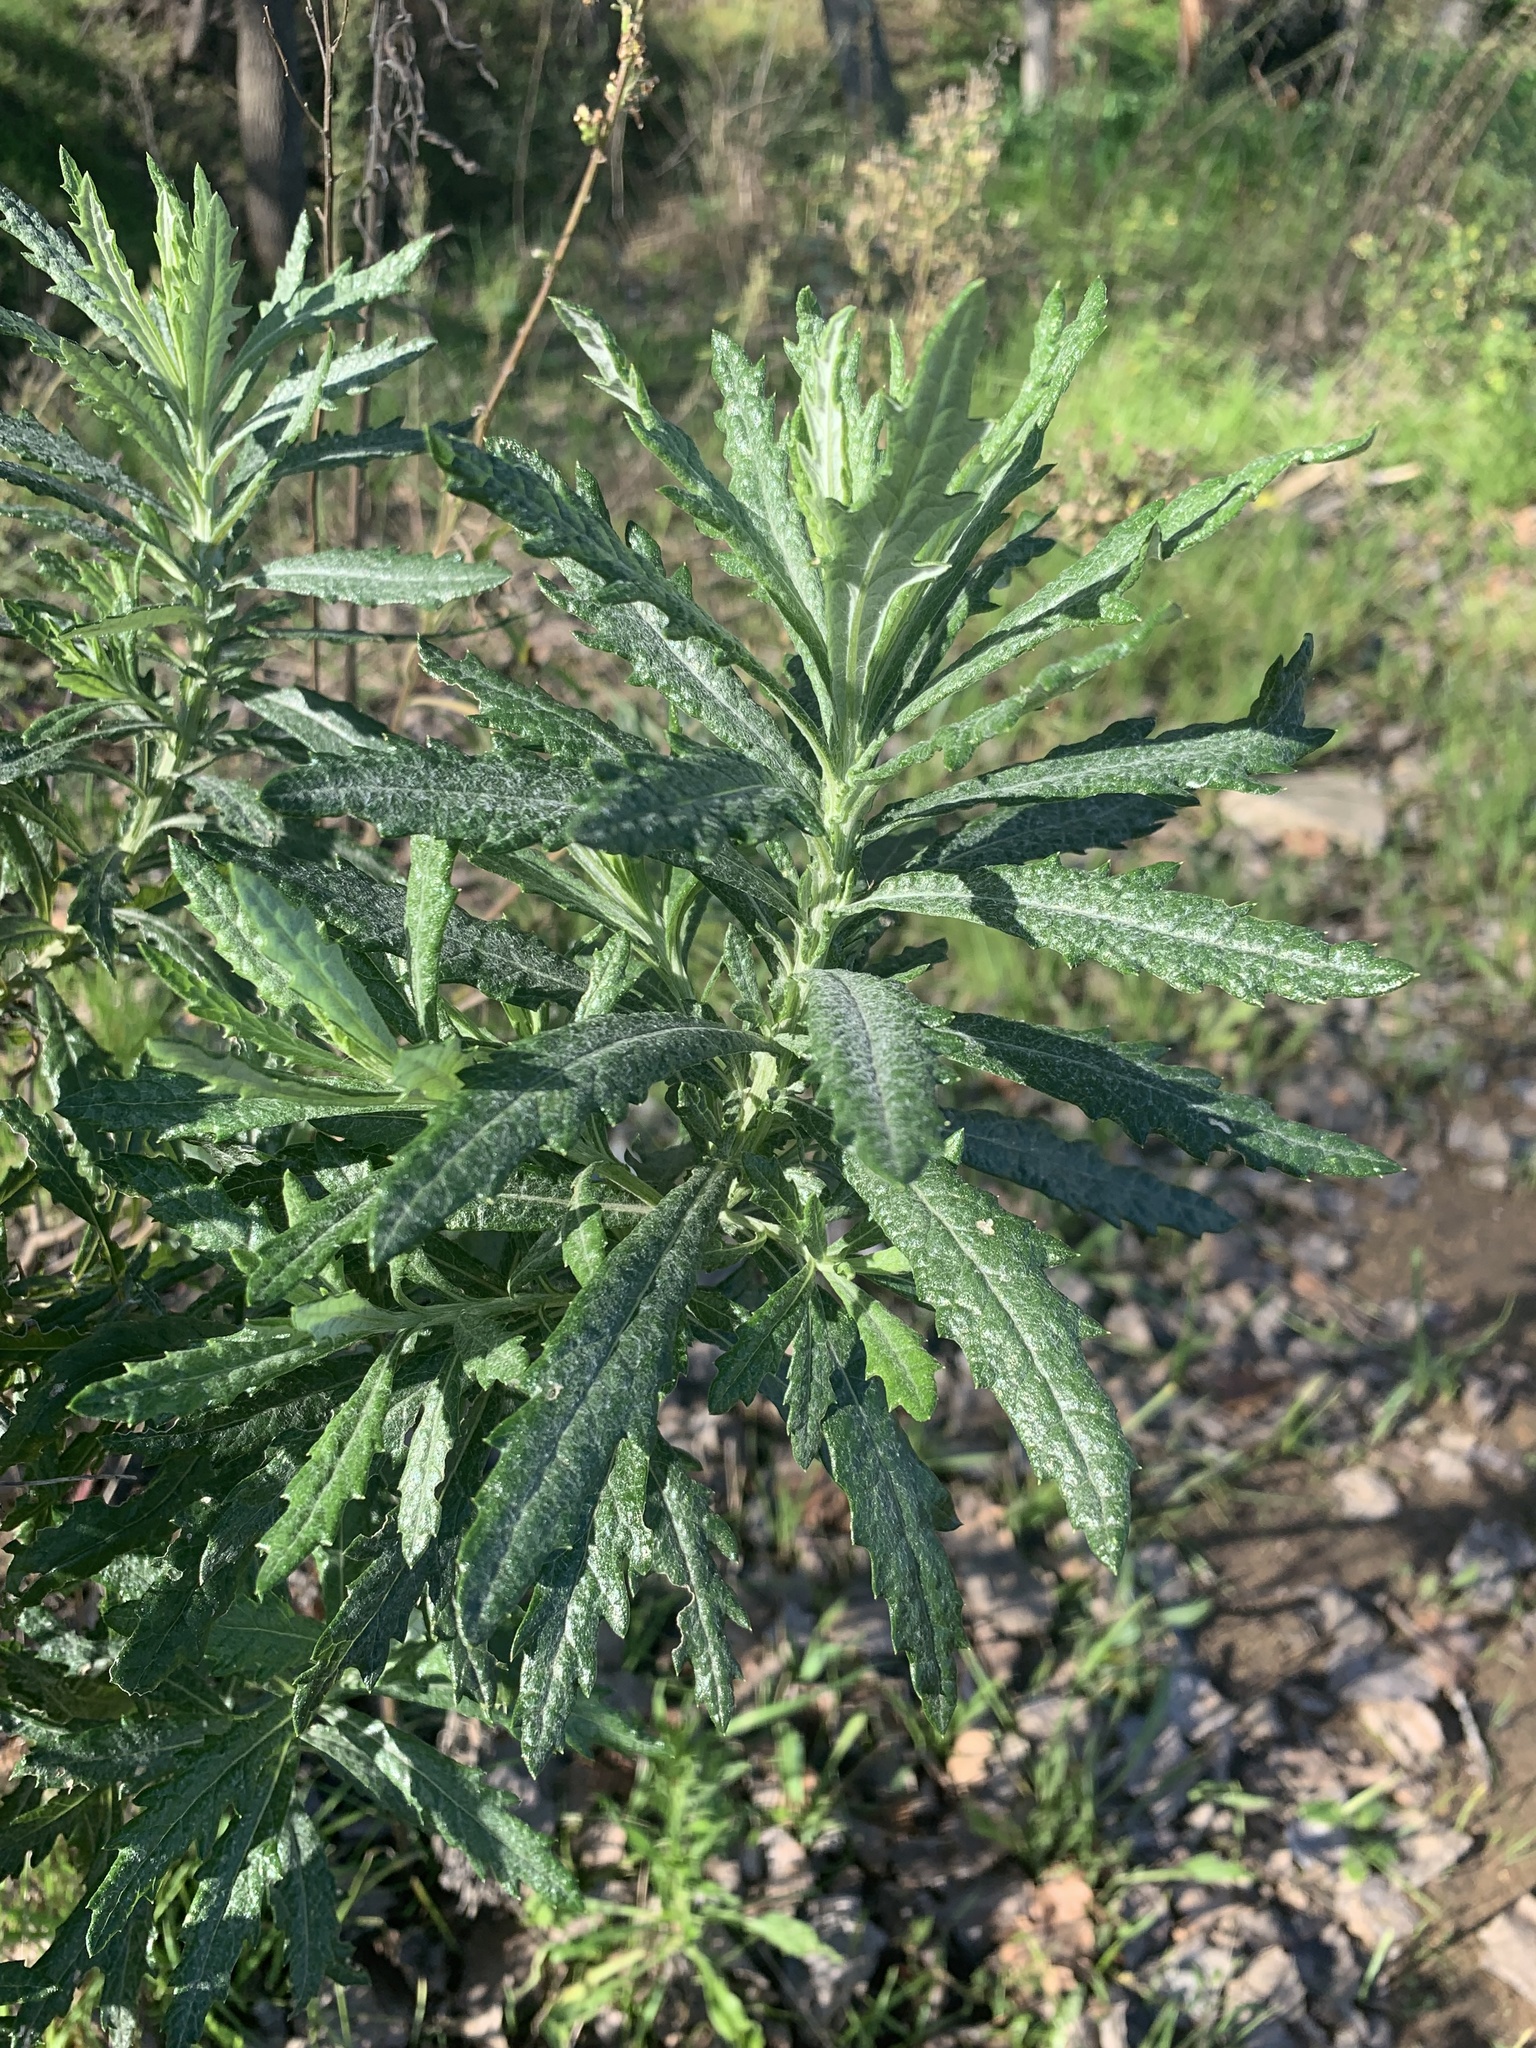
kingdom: Plantae
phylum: Tracheophyta
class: Magnoliopsida
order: Asterales
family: Asteraceae
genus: Senecio
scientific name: Senecio pterophorus
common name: Shoddy ragwort
